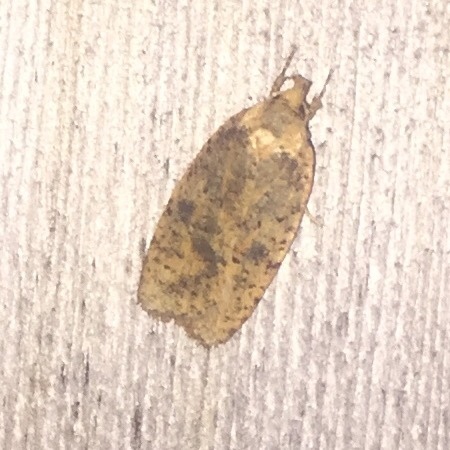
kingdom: Animalia
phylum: Arthropoda
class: Insecta
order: Lepidoptera
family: Depressariidae
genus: Agonopterix
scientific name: Agonopterix robiniella
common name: Four-dotted agonopterix moth
